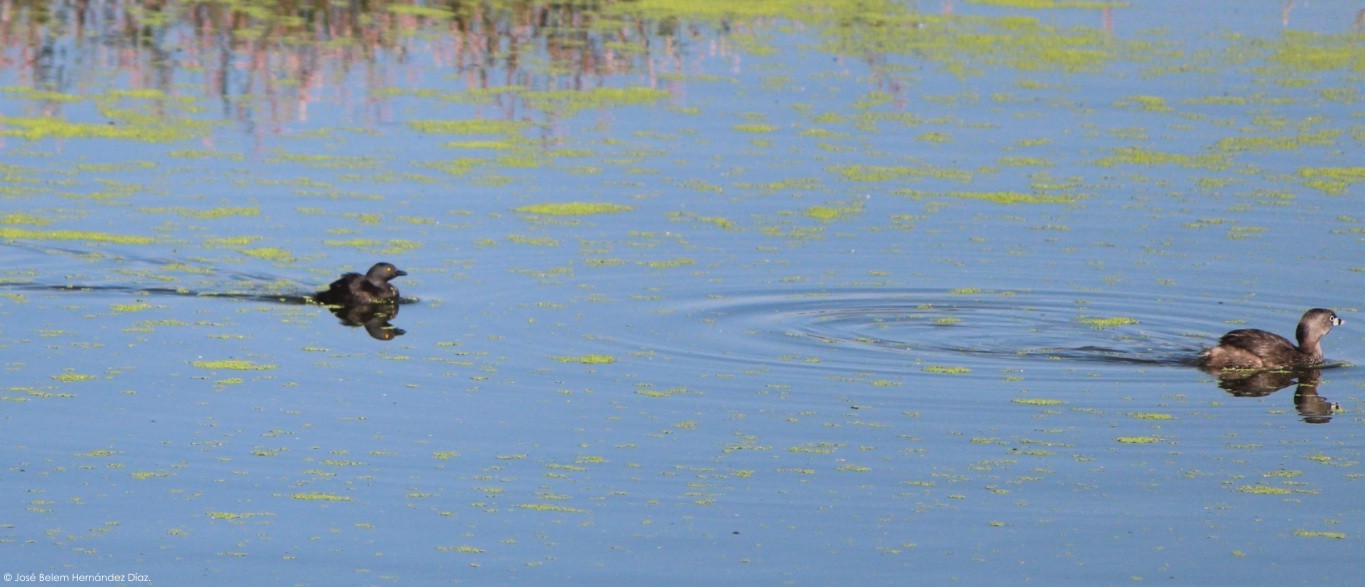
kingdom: Animalia
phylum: Chordata
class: Aves
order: Podicipediformes
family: Podicipedidae
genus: Tachybaptus
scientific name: Tachybaptus dominicus
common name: Least grebe
